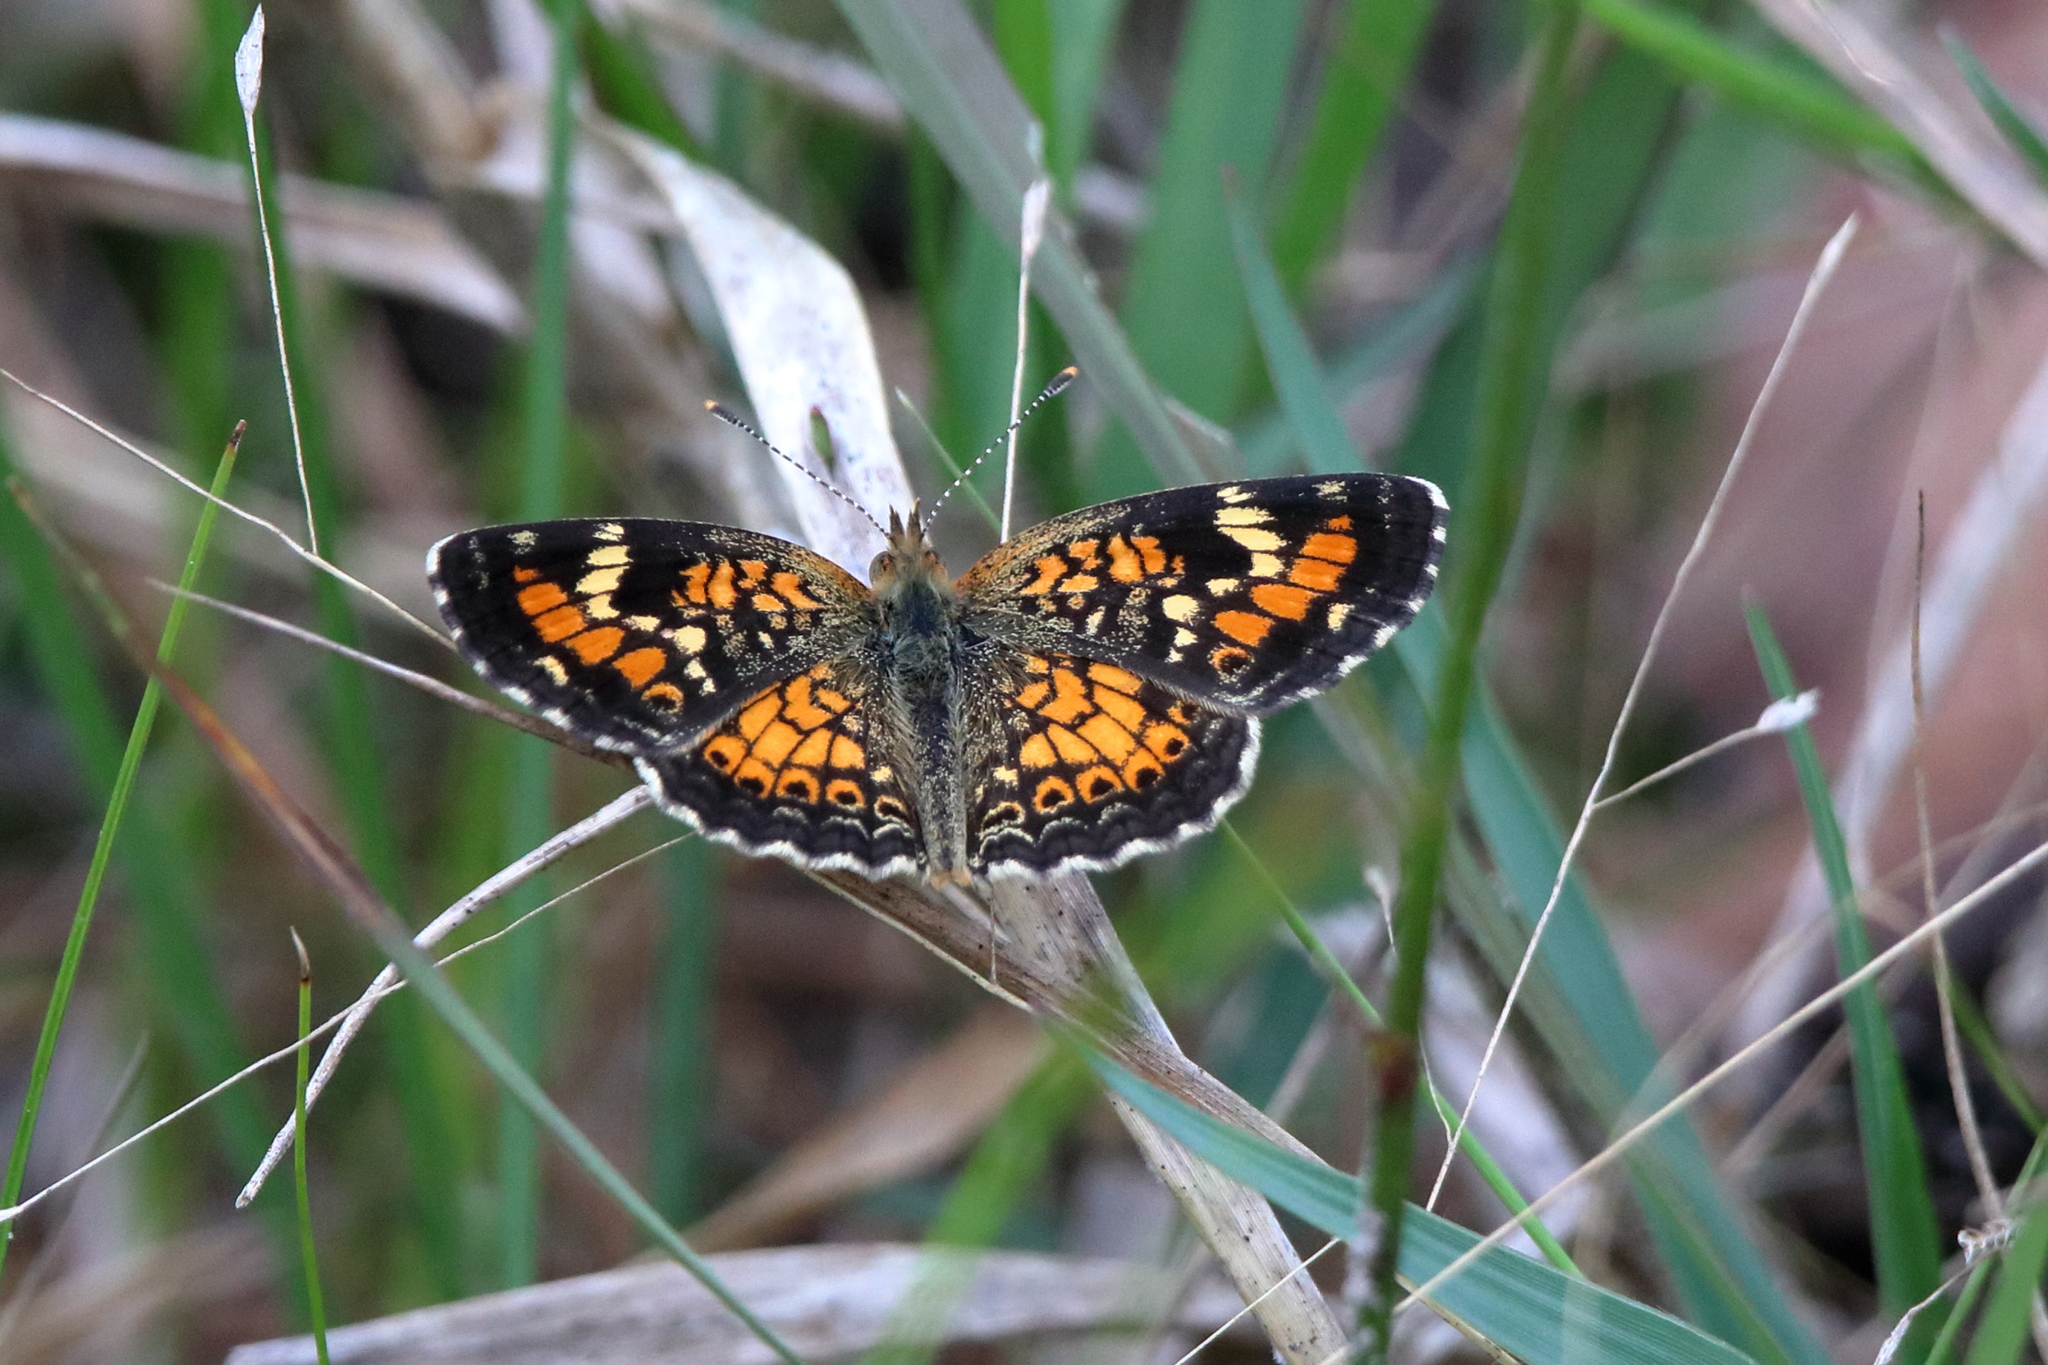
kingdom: Animalia
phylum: Arthropoda
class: Insecta
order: Lepidoptera
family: Nymphalidae
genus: Phyciodes
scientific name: Phyciodes phaon
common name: Phaon crescent
